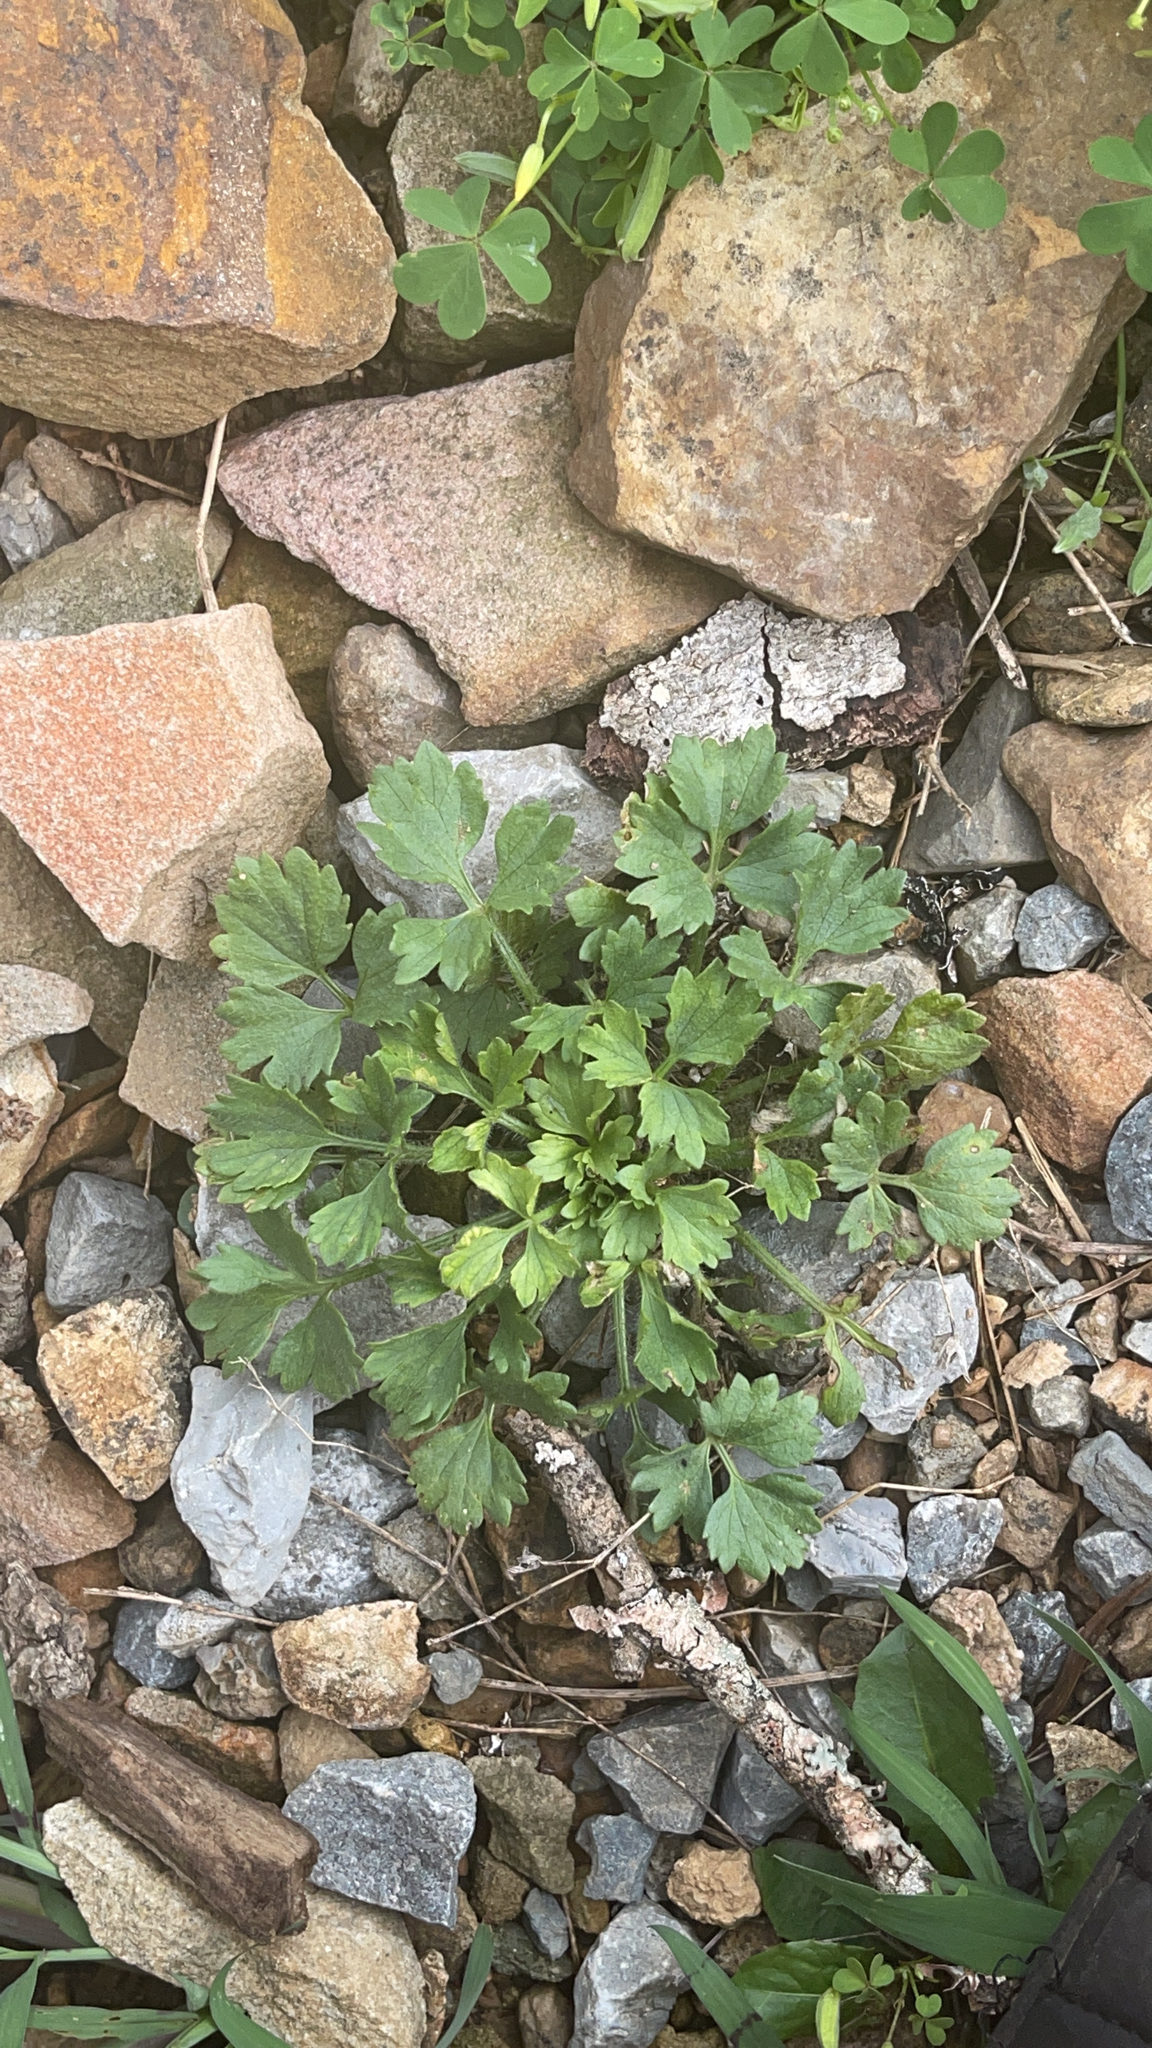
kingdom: Plantae
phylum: Tracheophyta
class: Magnoliopsida
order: Ranunculales
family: Ranunculaceae
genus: Ranunculus
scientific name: Ranunculus repens
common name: Creeping buttercup
